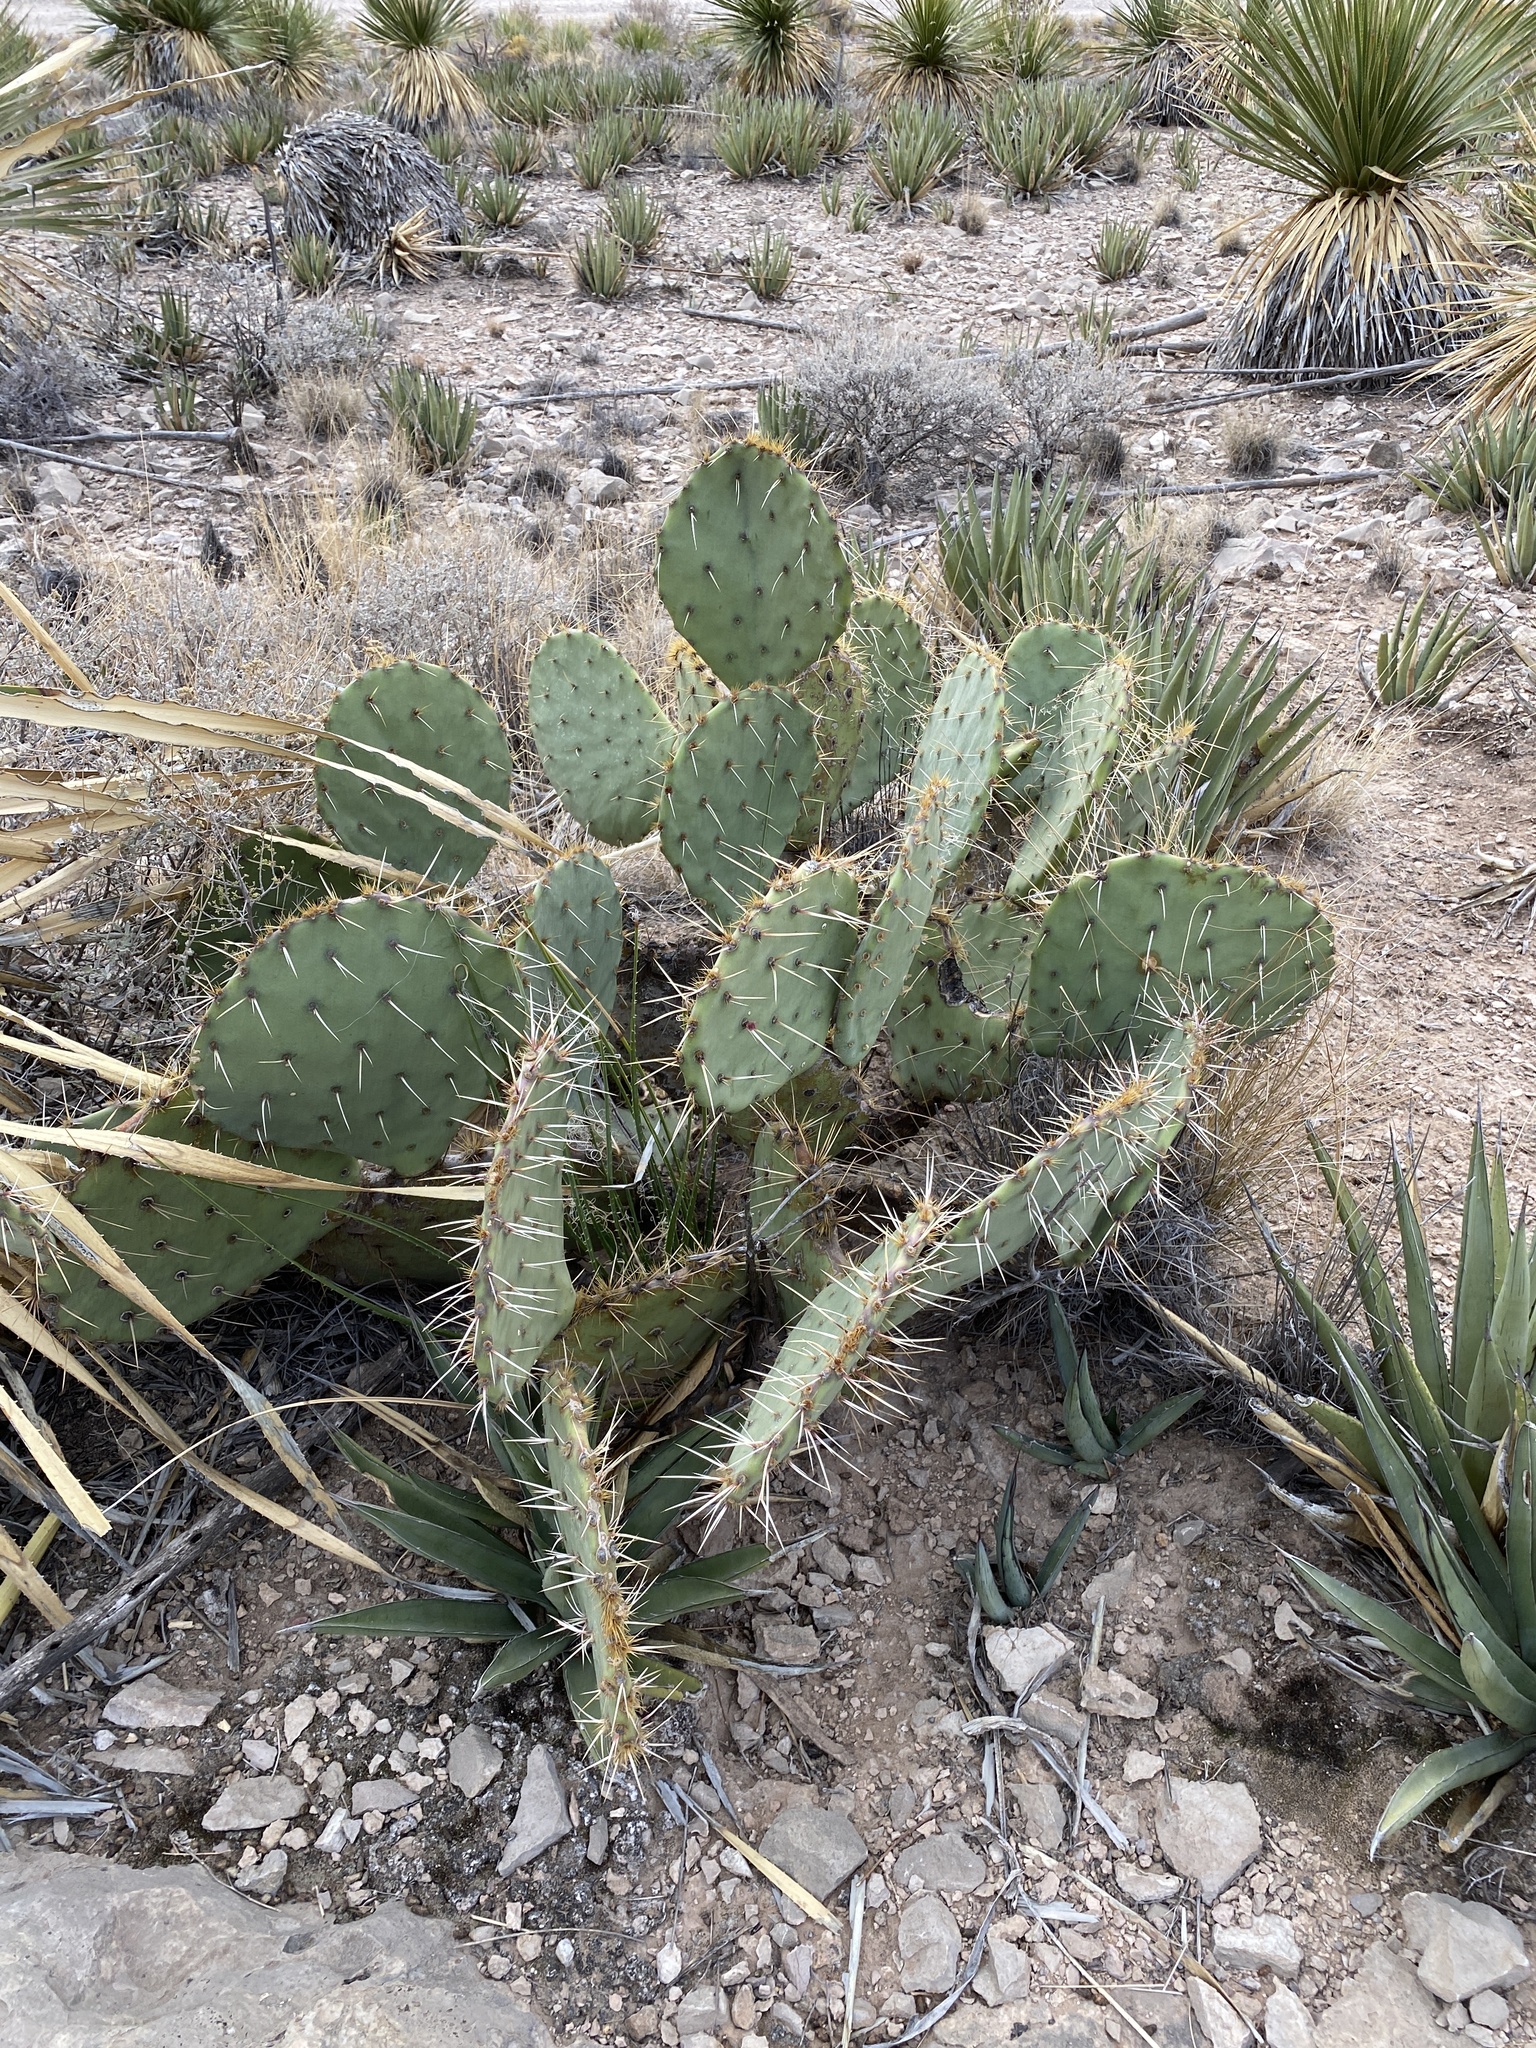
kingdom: Plantae
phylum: Tracheophyta
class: Magnoliopsida
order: Caryophyllales
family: Cactaceae
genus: Opuntia
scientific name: Opuntia engelmannii
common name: Cactus-apple
